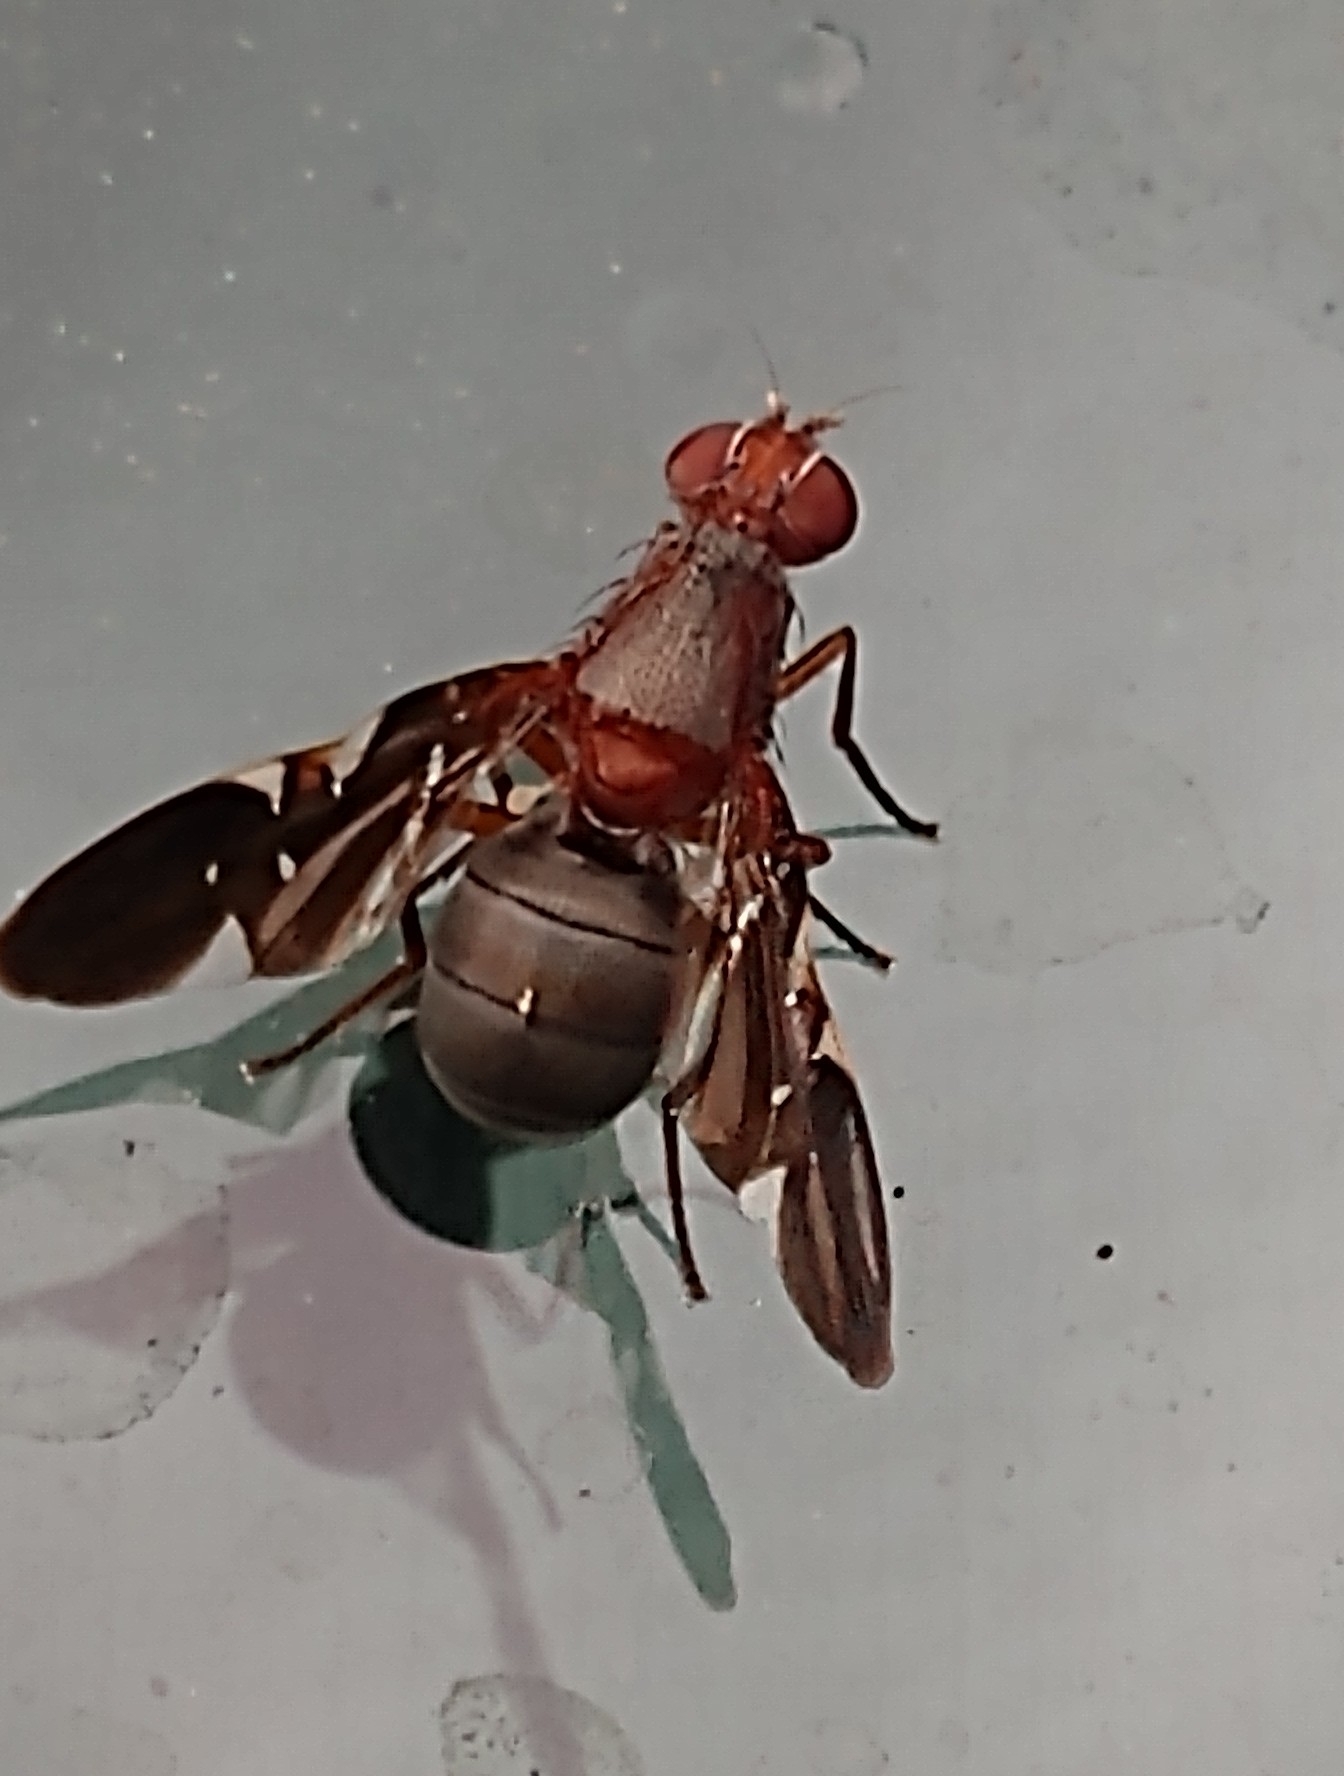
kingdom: Animalia
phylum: Arthropoda
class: Insecta
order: Diptera
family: Ulidiidae
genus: Delphinia
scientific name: Delphinia picta
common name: Common picture-winged fly
